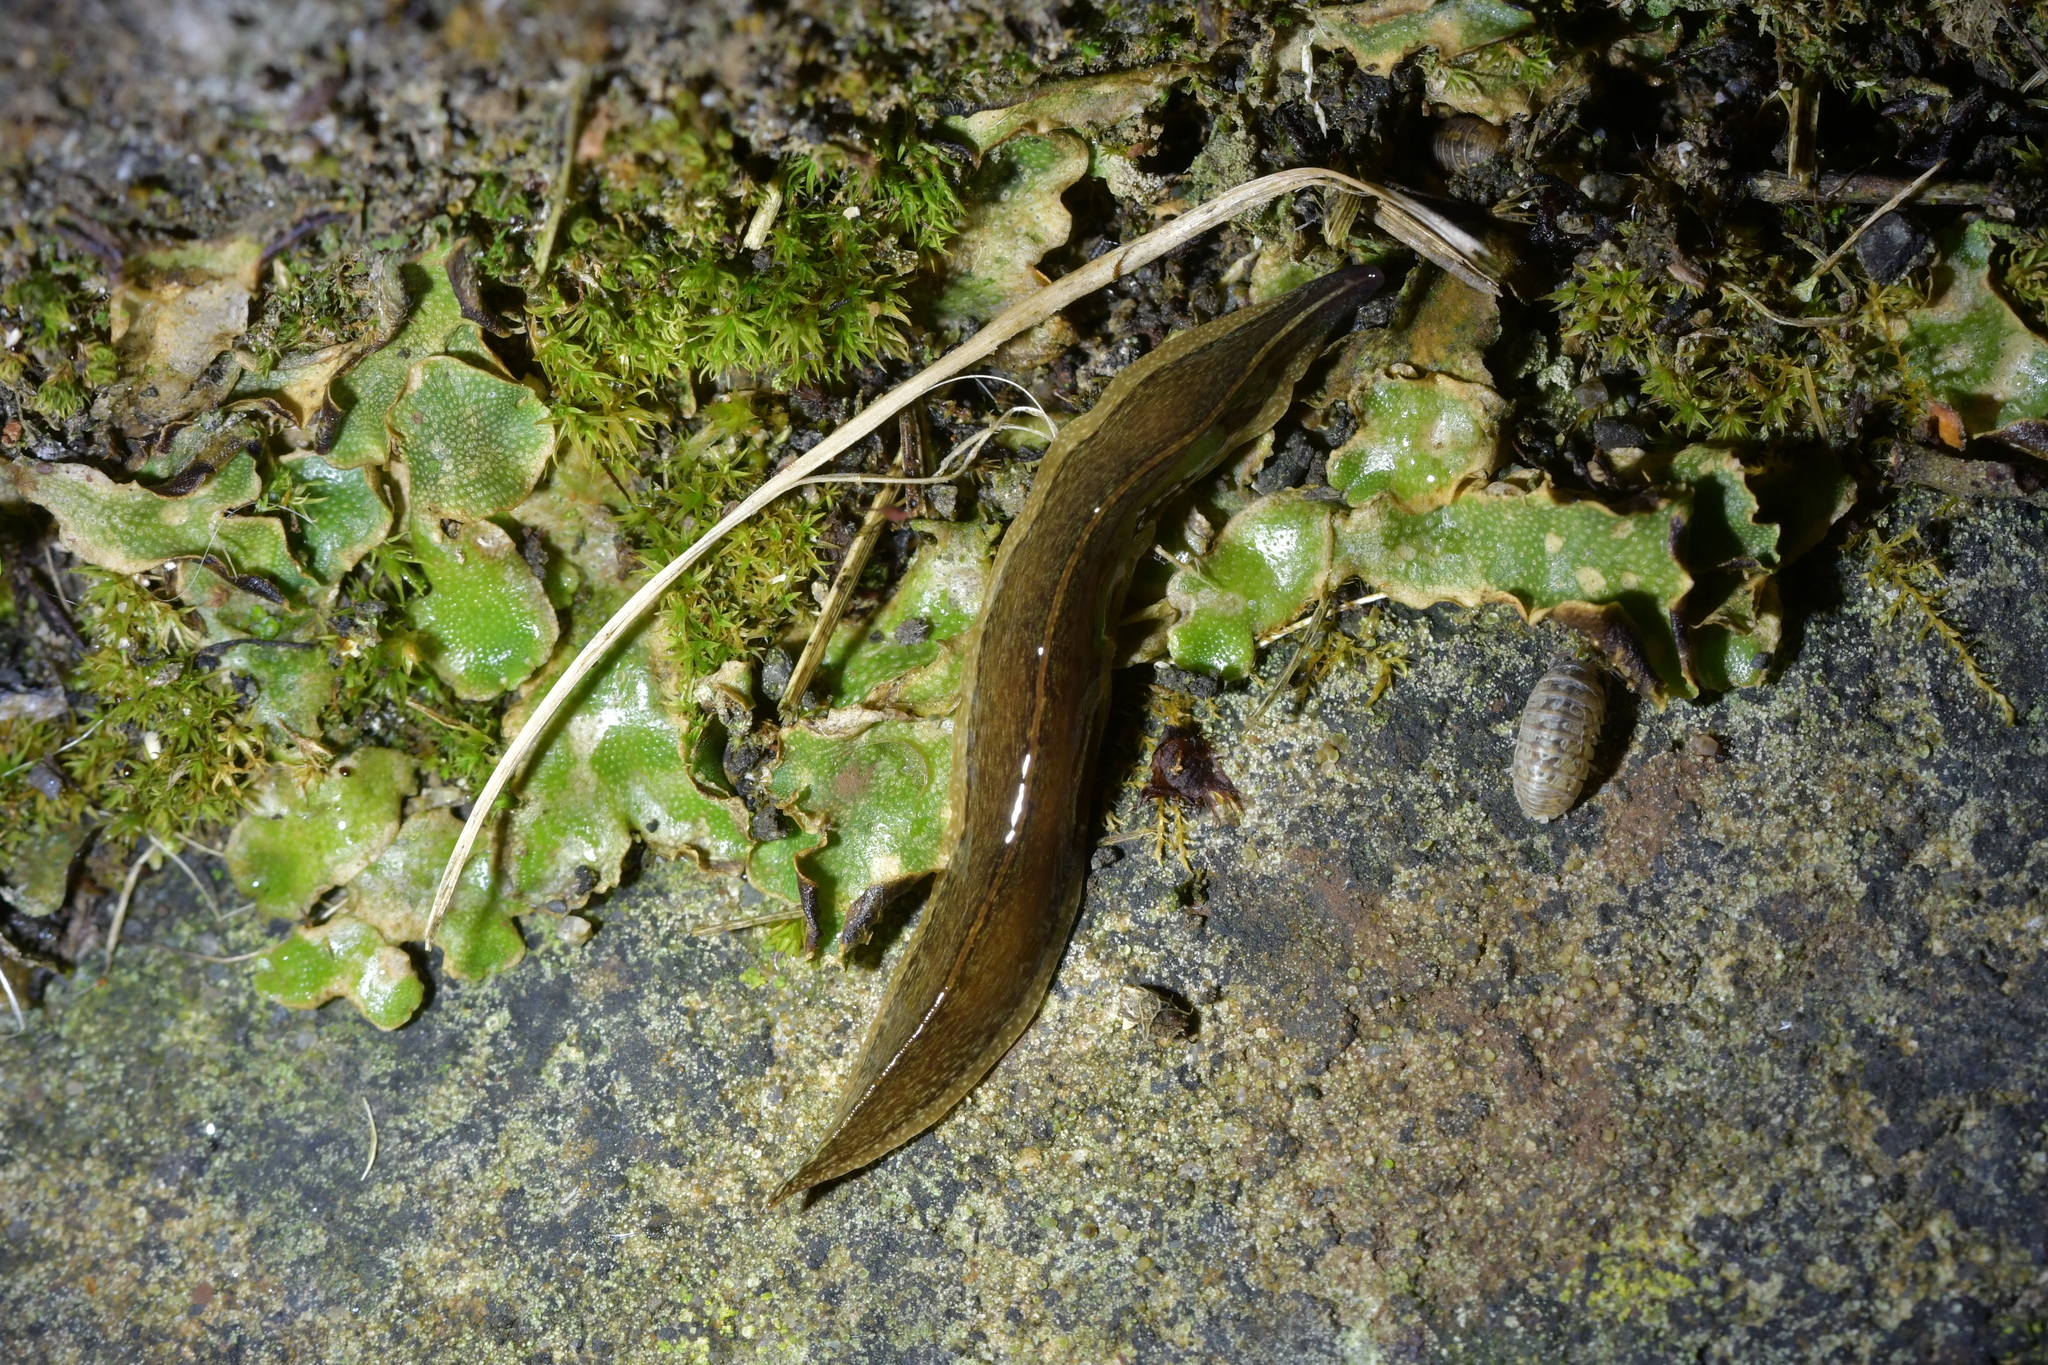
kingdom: Animalia
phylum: Platyhelminthes
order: Tricladida
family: Geoplanidae
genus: Newzealandia
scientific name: Newzealandia graffii
